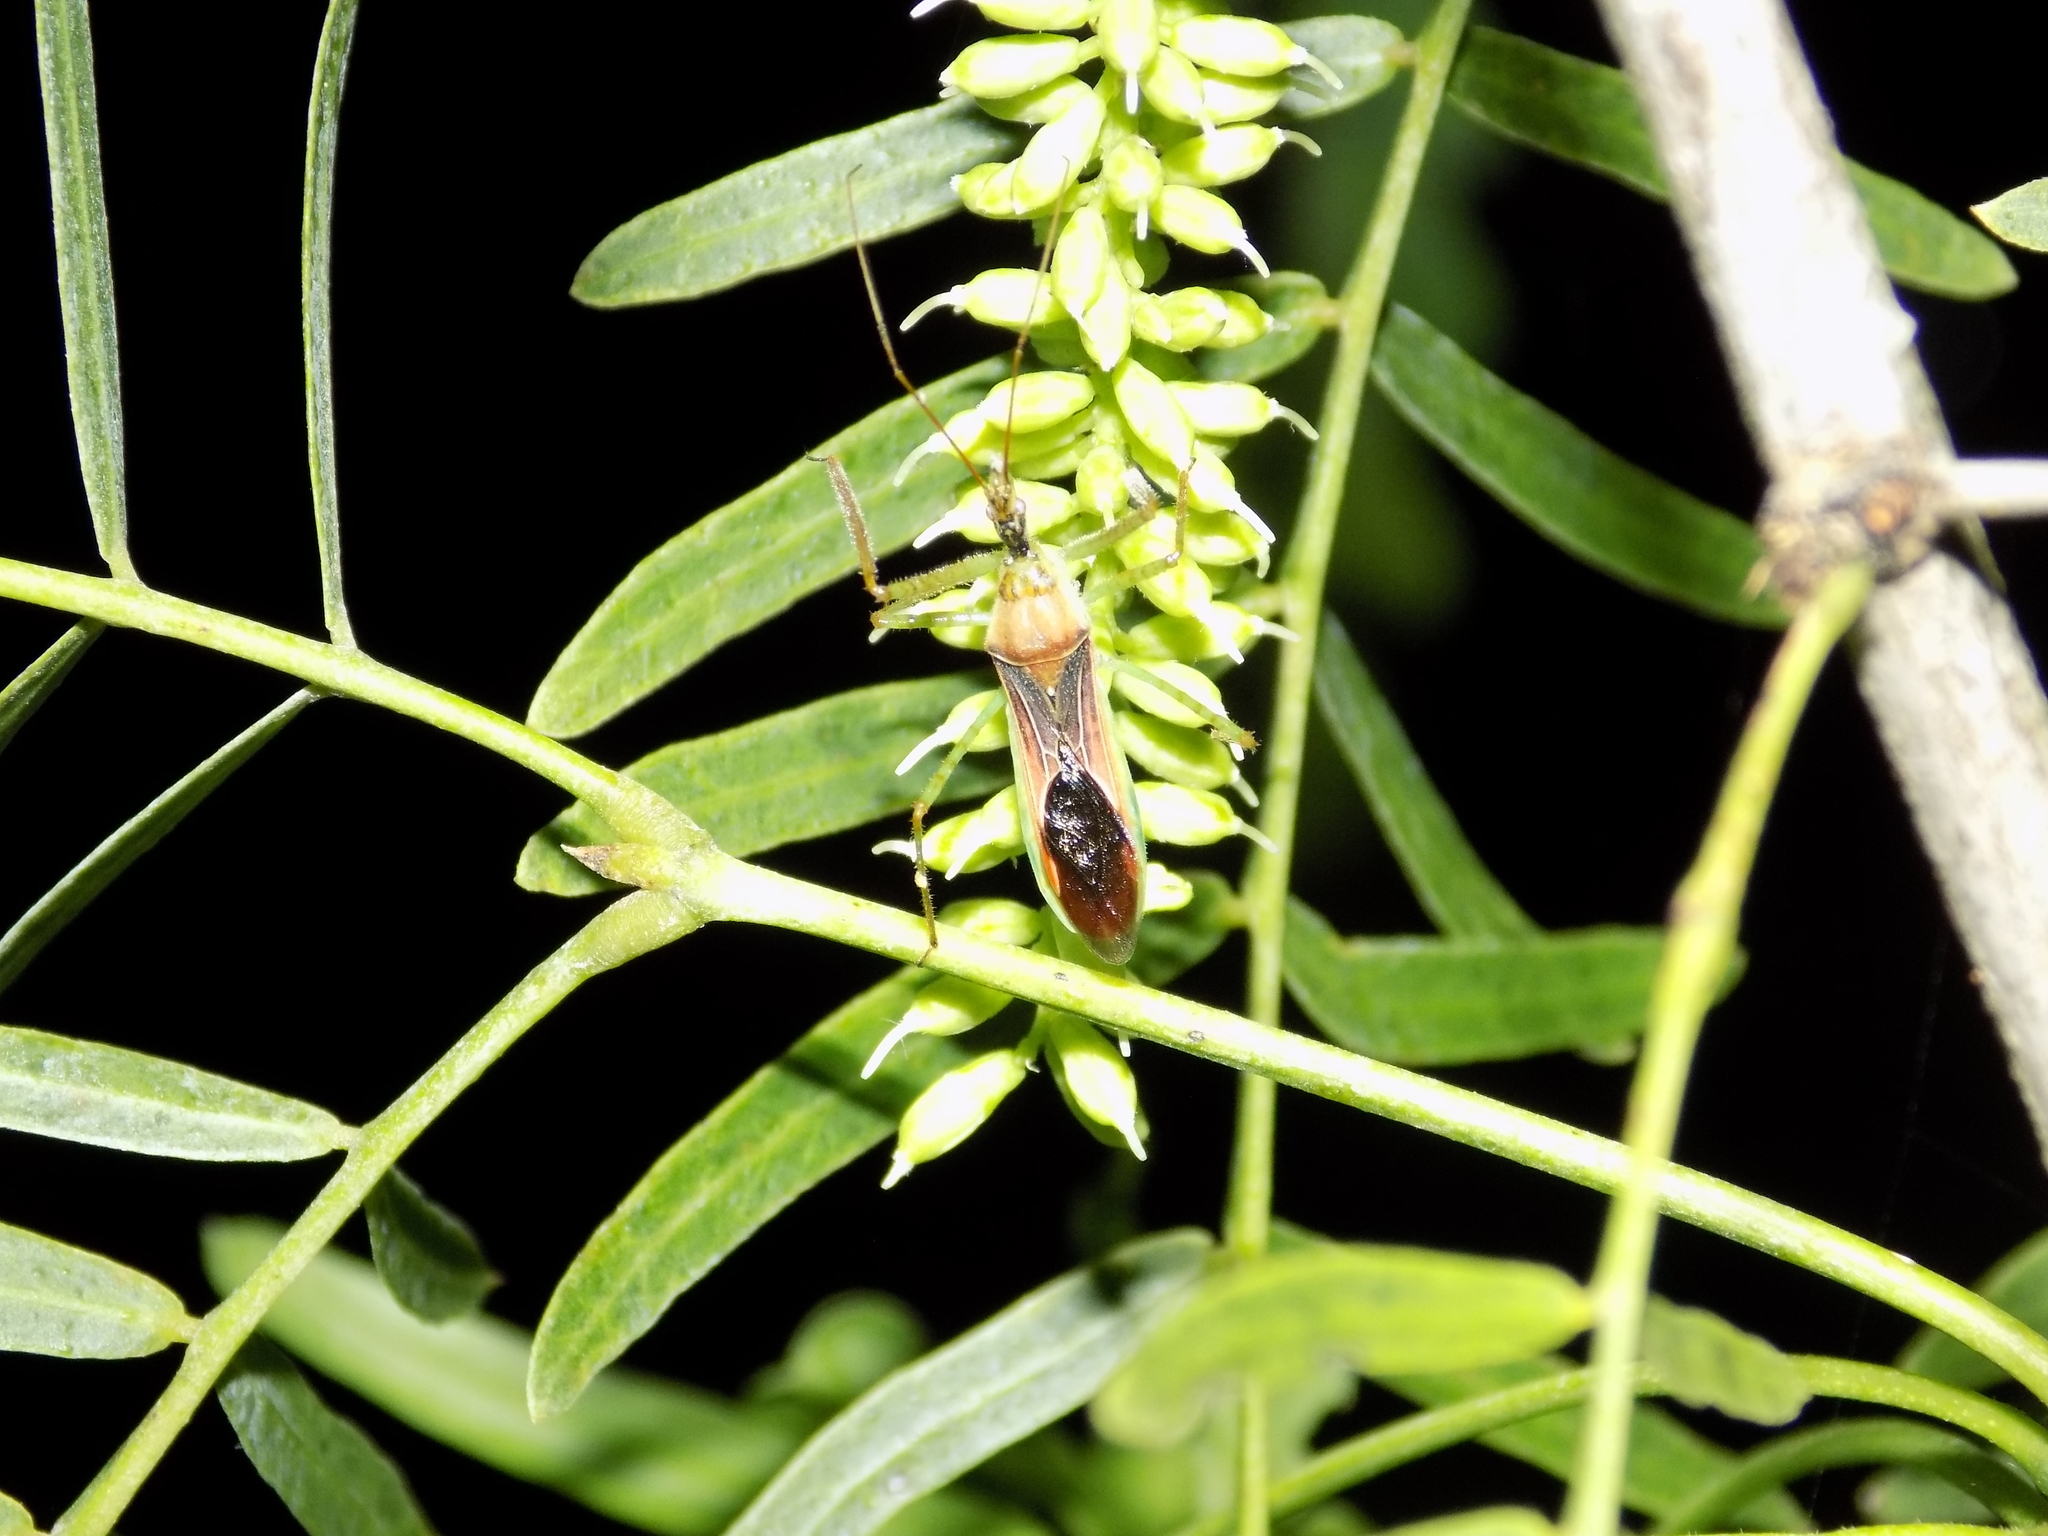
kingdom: Animalia
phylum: Arthropoda
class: Insecta
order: Hemiptera
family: Reduviidae
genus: Zelus
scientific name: Zelus renardii
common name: Assassin bug
